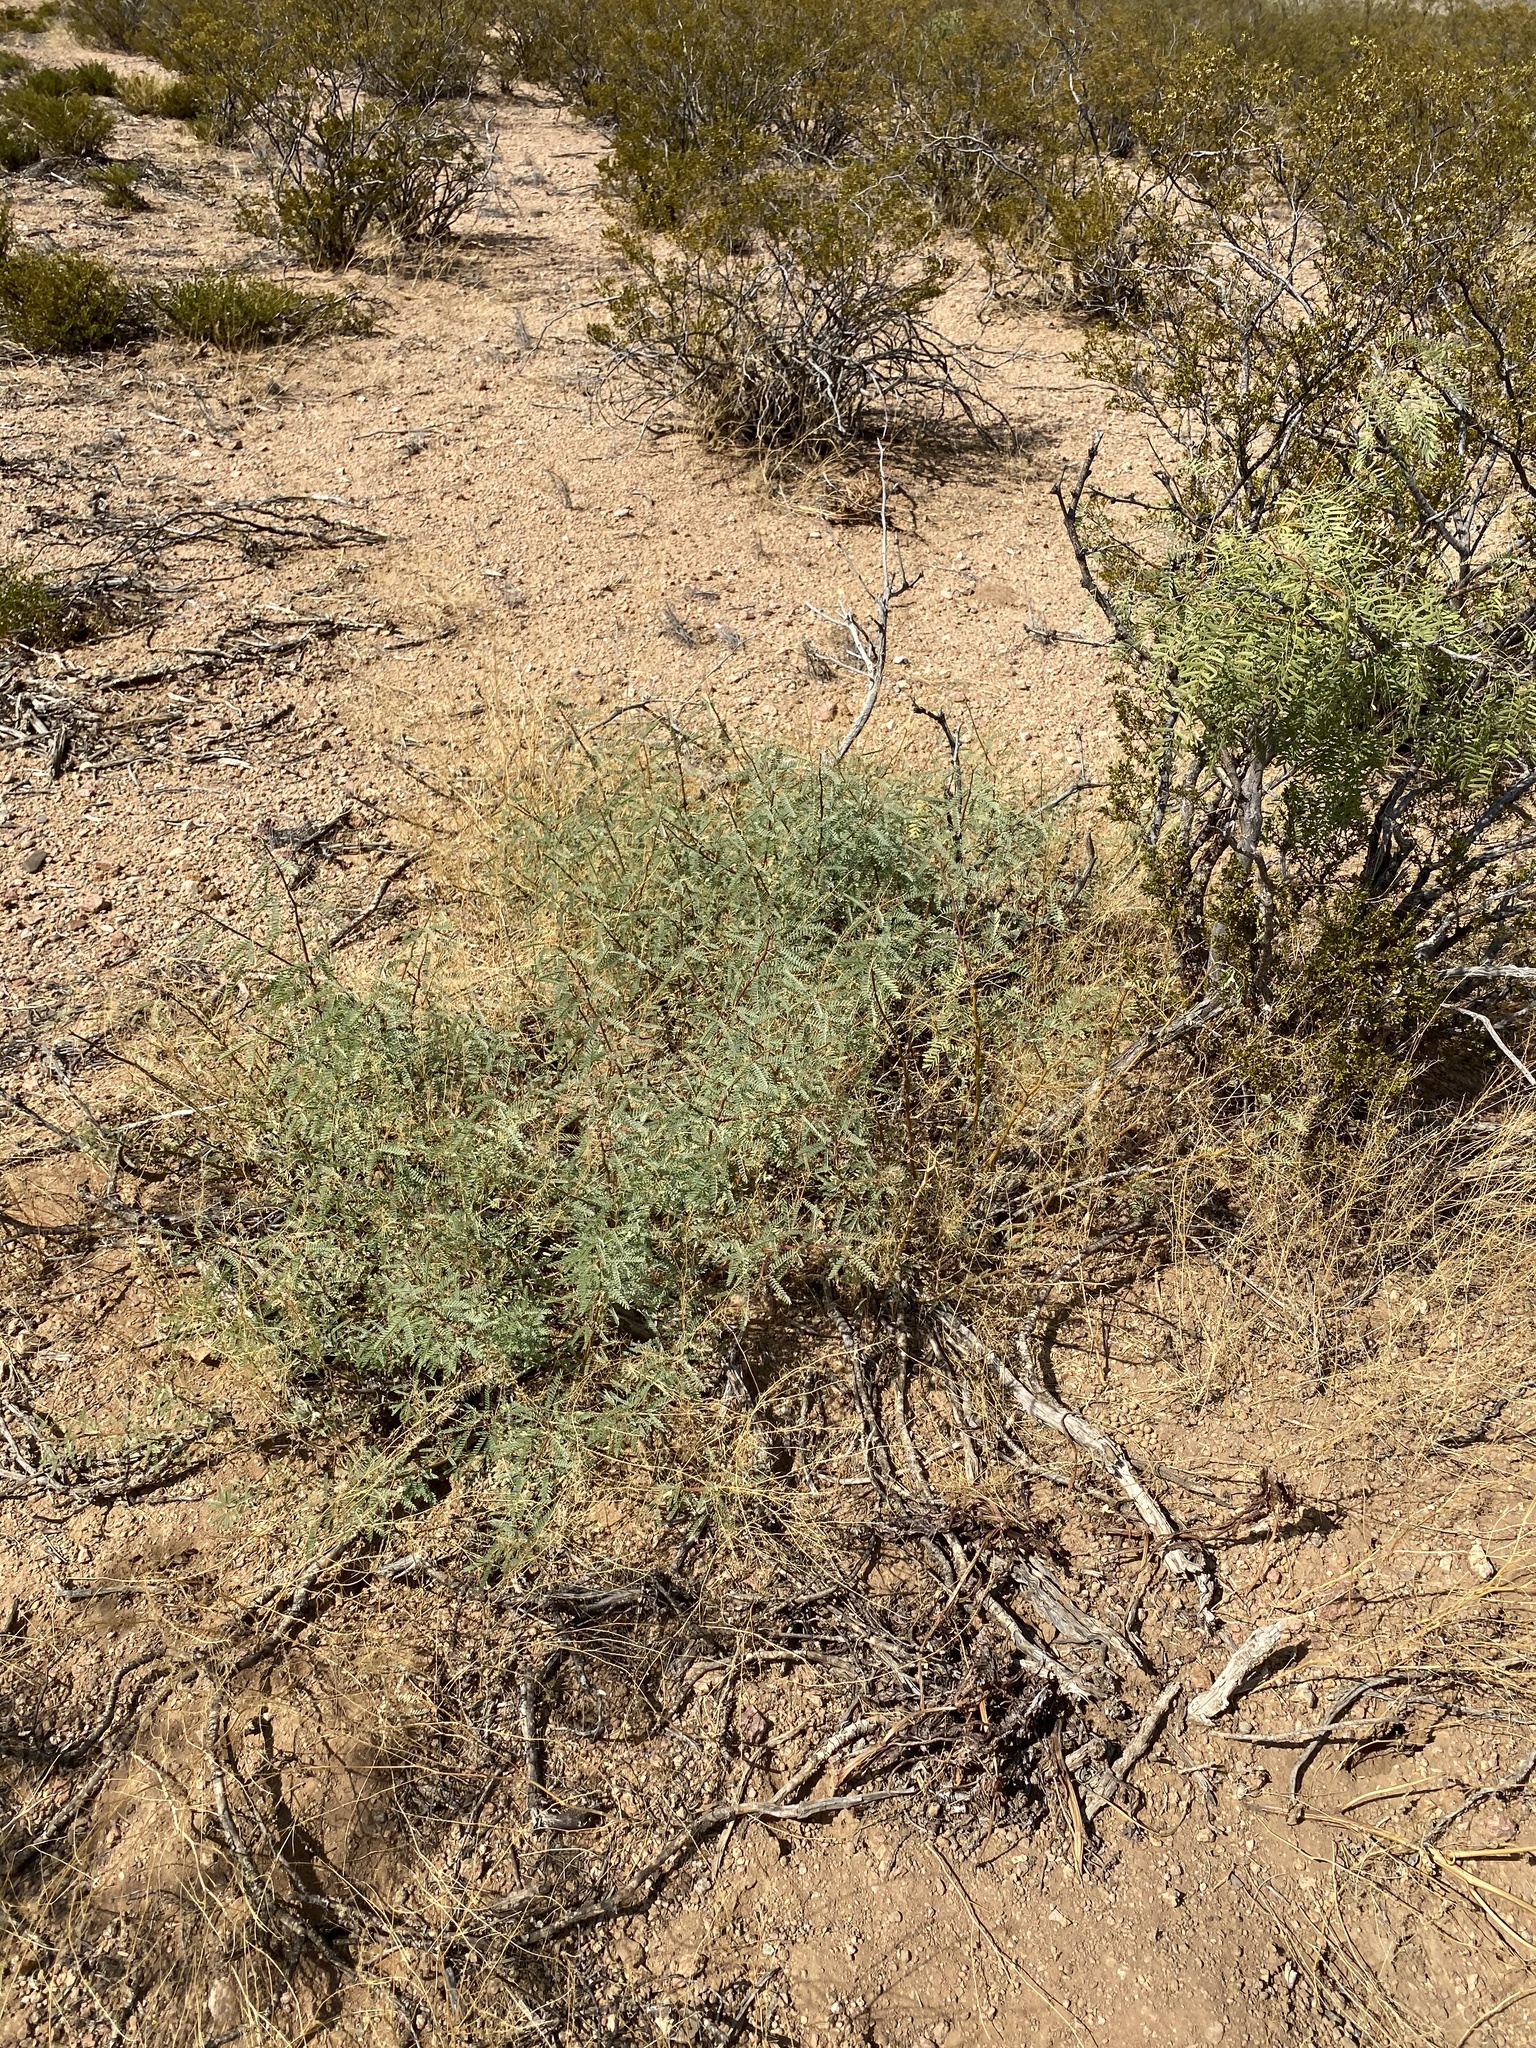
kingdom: Plantae
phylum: Tracheophyta
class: Magnoliopsida
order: Fabales
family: Fabaceae
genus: Prosopis
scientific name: Prosopis glandulosa
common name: Honey mesquite
